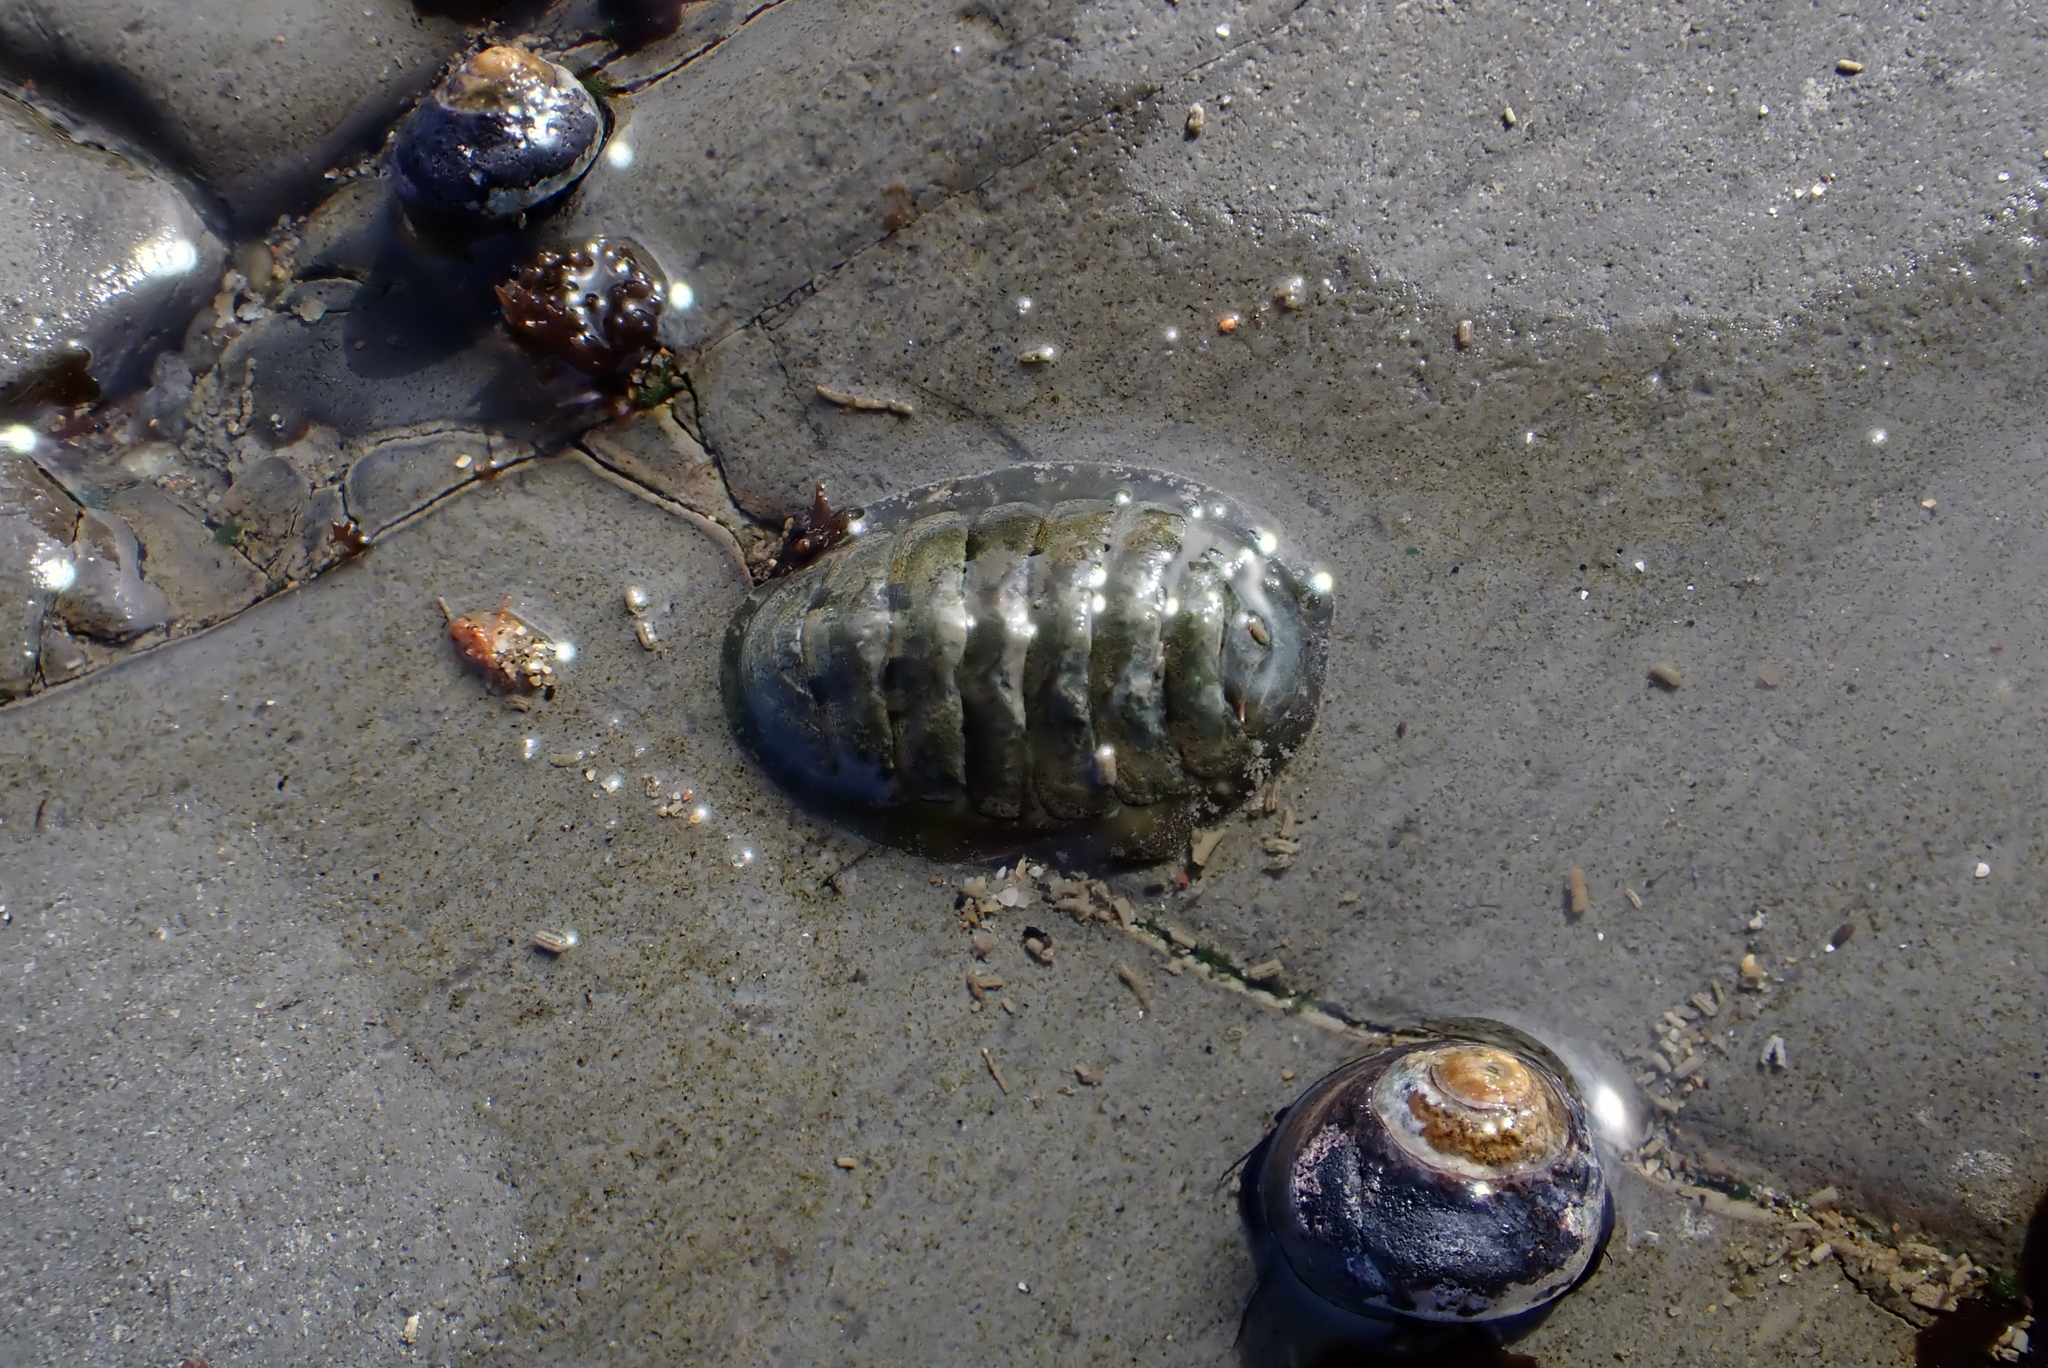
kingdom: Animalia
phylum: Mollusca
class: Polyplacophora
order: Chitonida
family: Tonicellidae
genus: Cyanoplax
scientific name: Cyanoplax hartwegii
